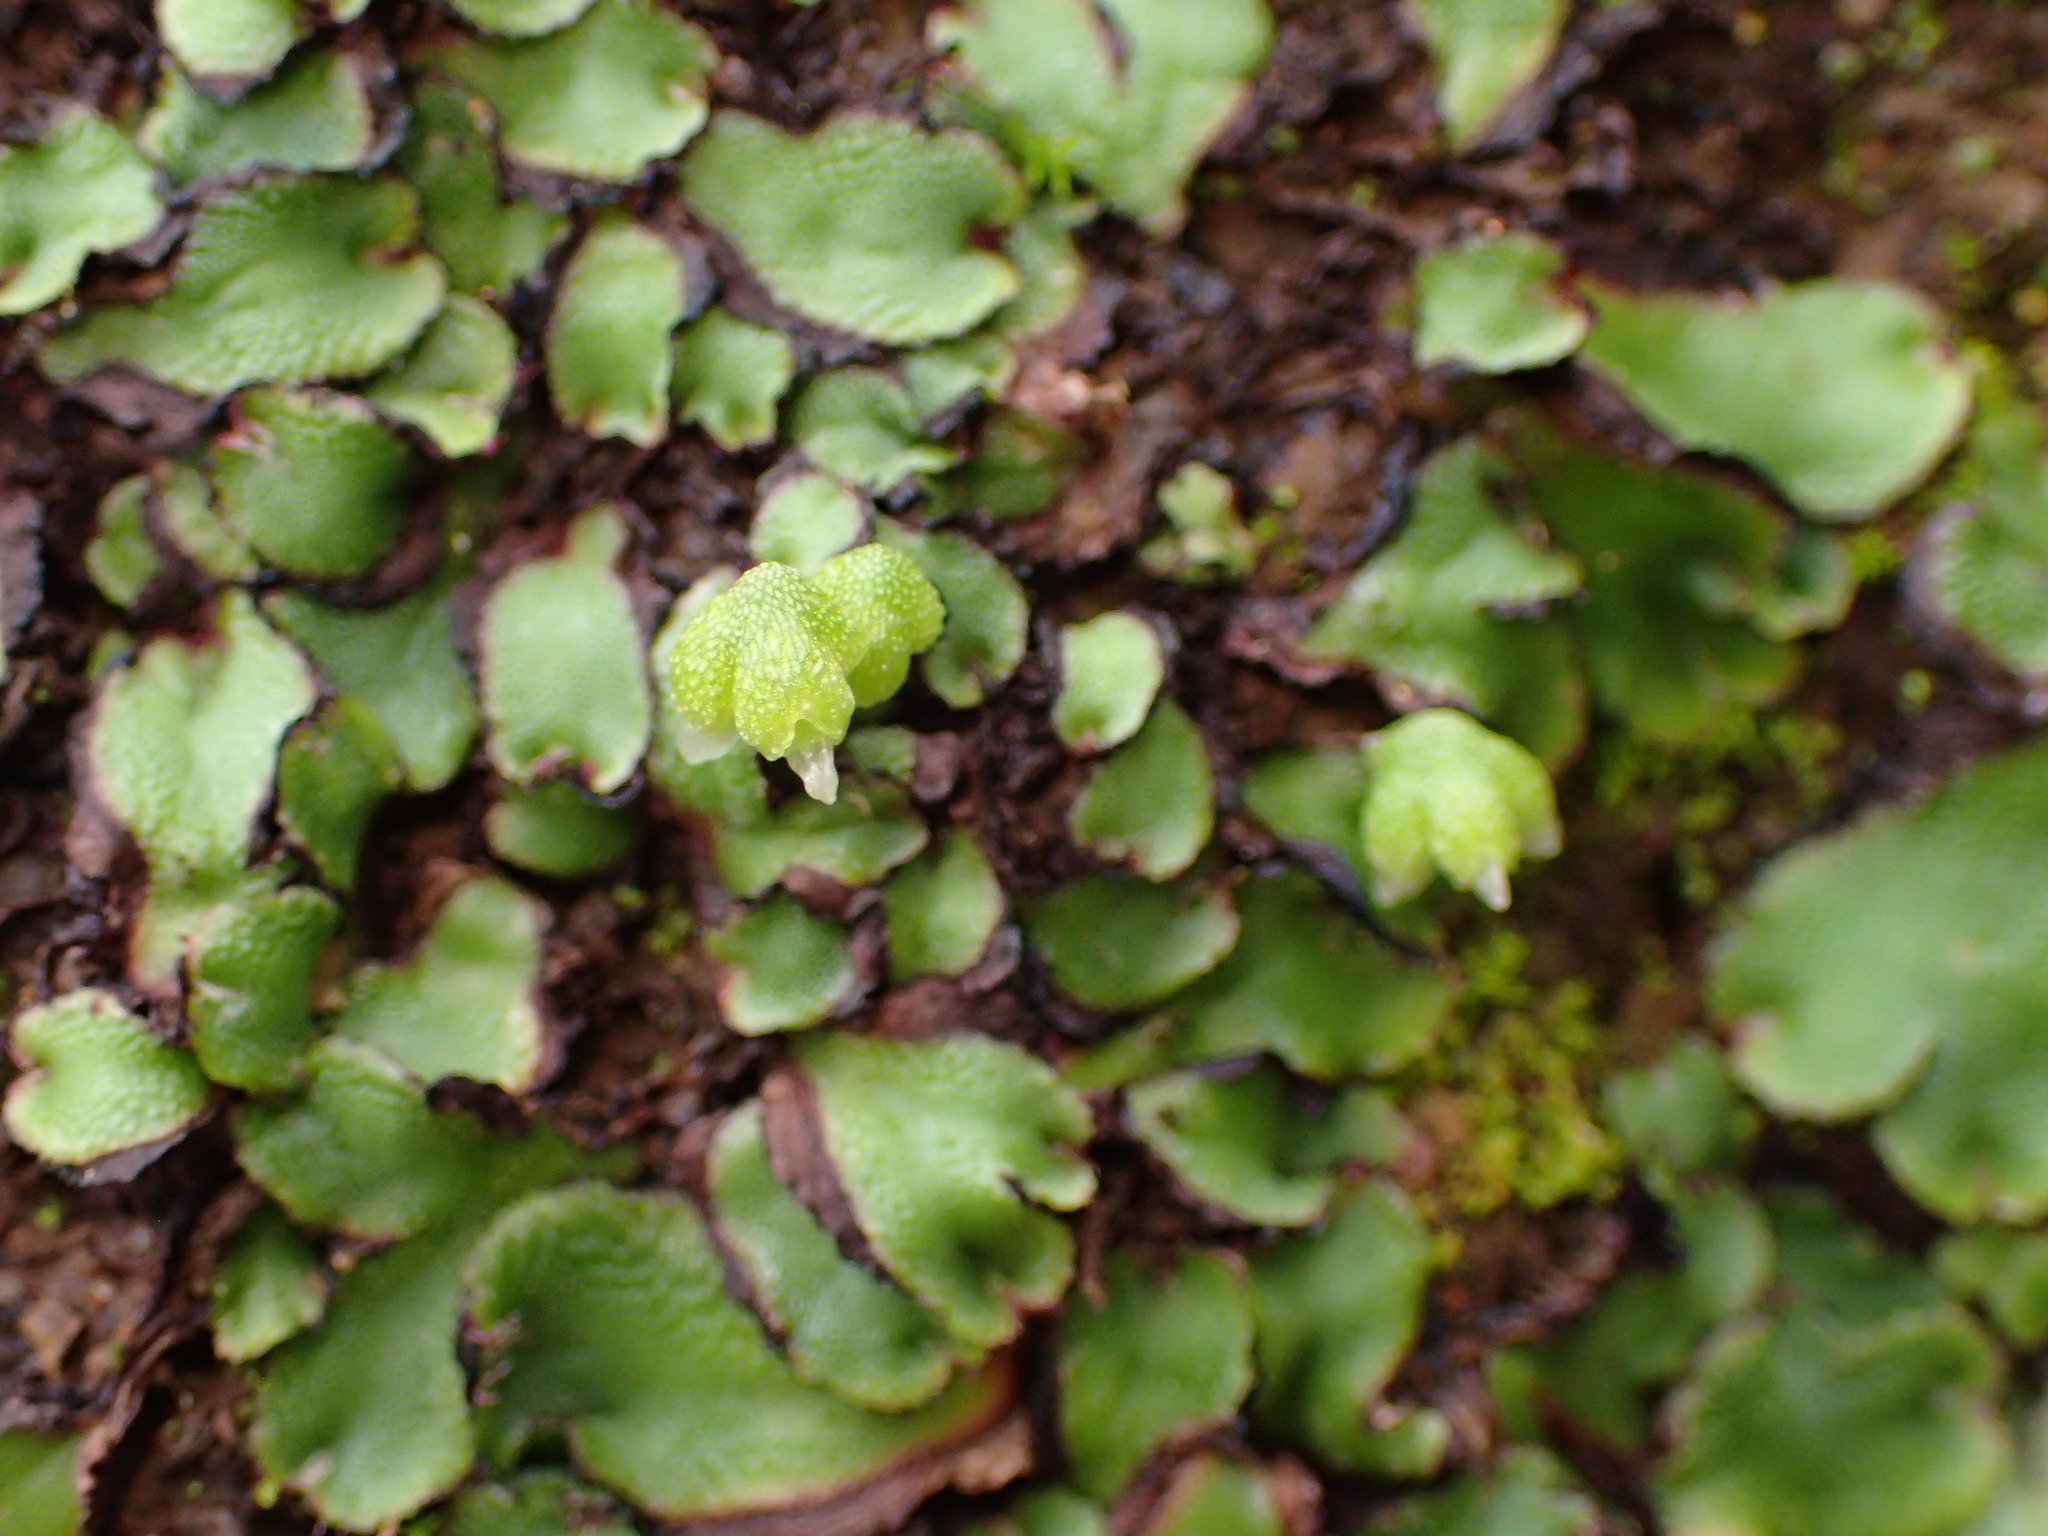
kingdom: Plantae
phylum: Marchantiophyta
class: Marchantiopsida
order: Marchantiales
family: Aytoniaceae
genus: Asterella
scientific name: Asterella californica
